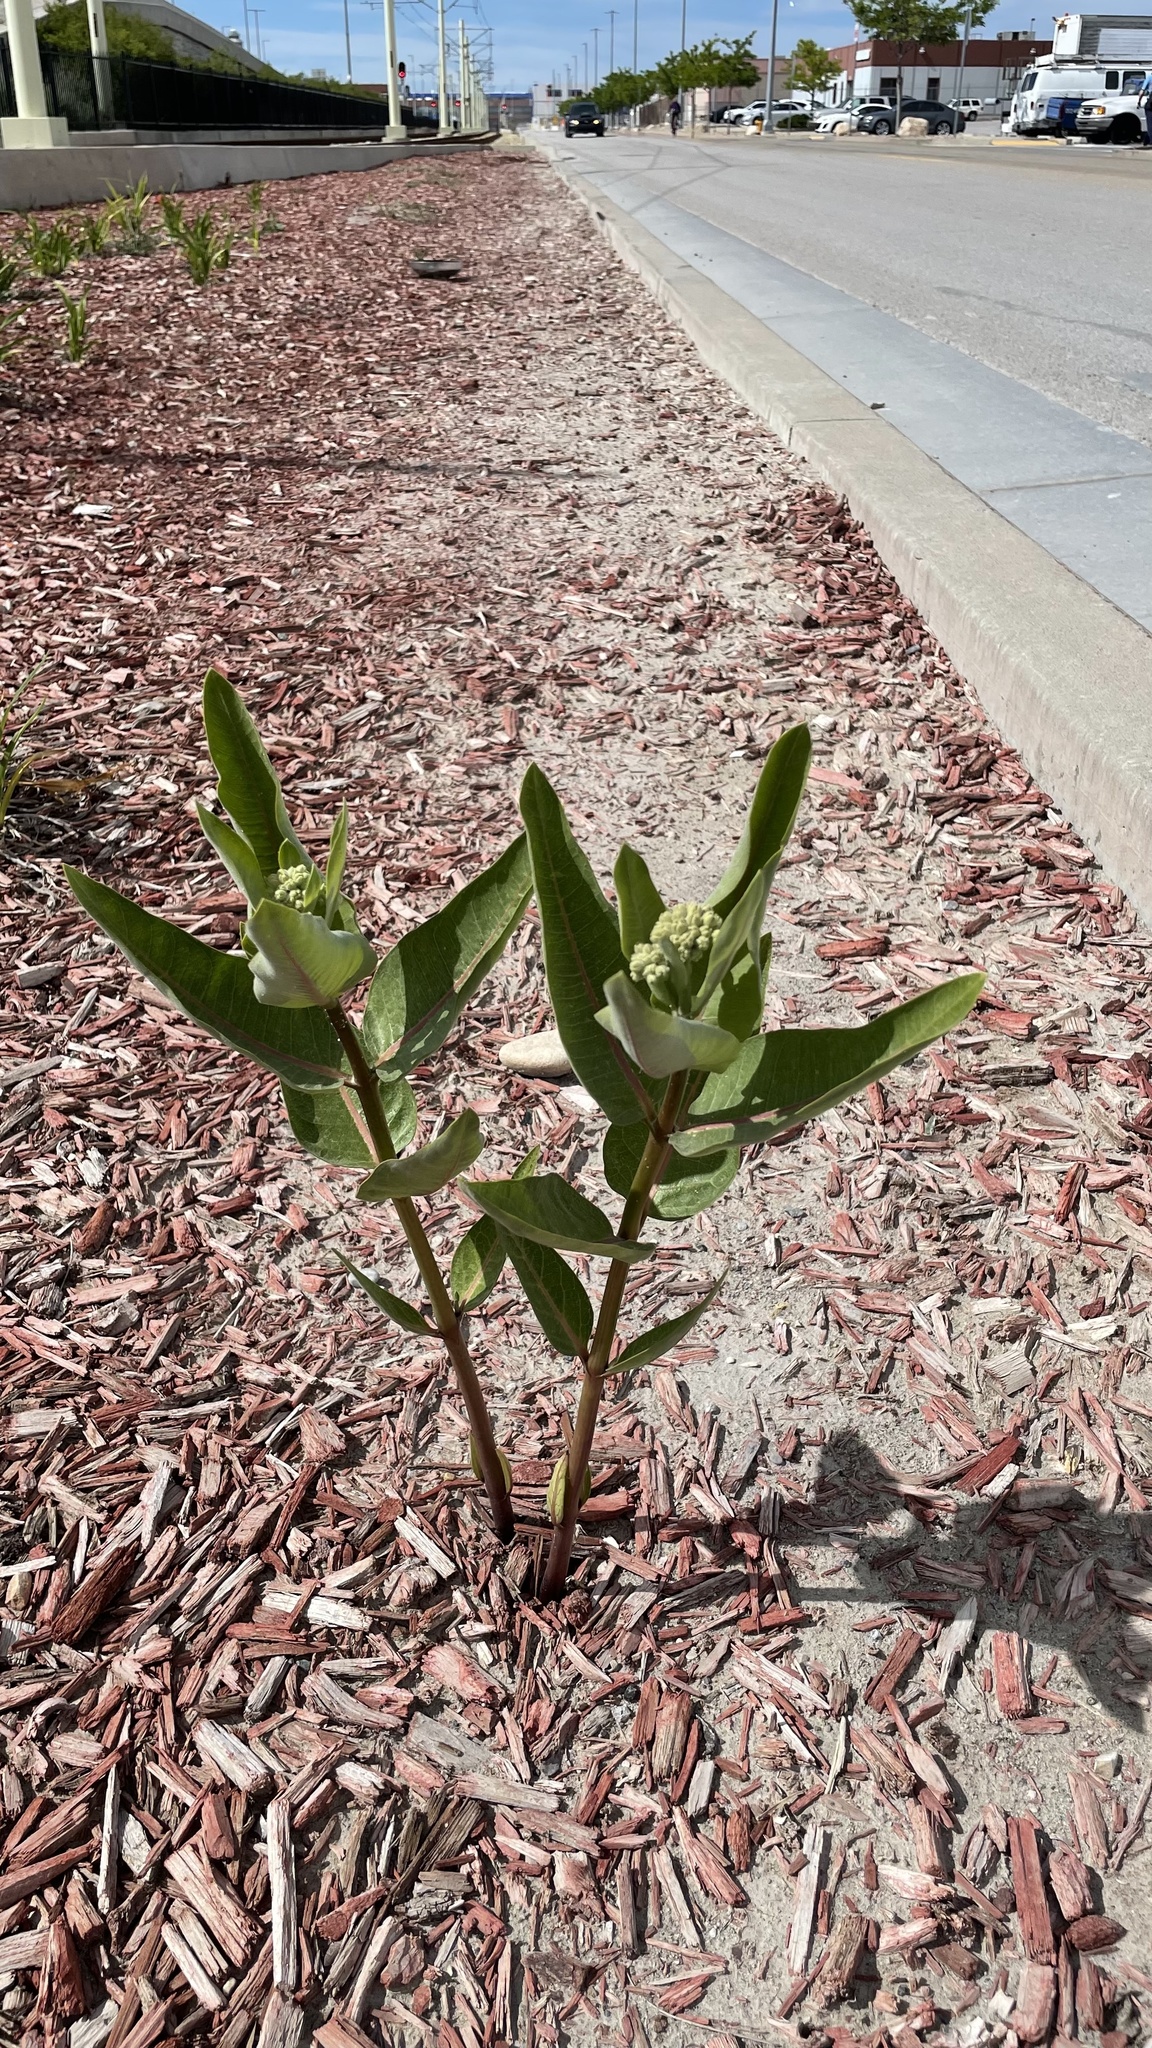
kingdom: Plantae
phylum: Tracheophyta
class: Magnoliopsida
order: Gentianales
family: Apocynaceae
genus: Asclepias
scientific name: Asclepias speciosa
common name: Showy milkweed
